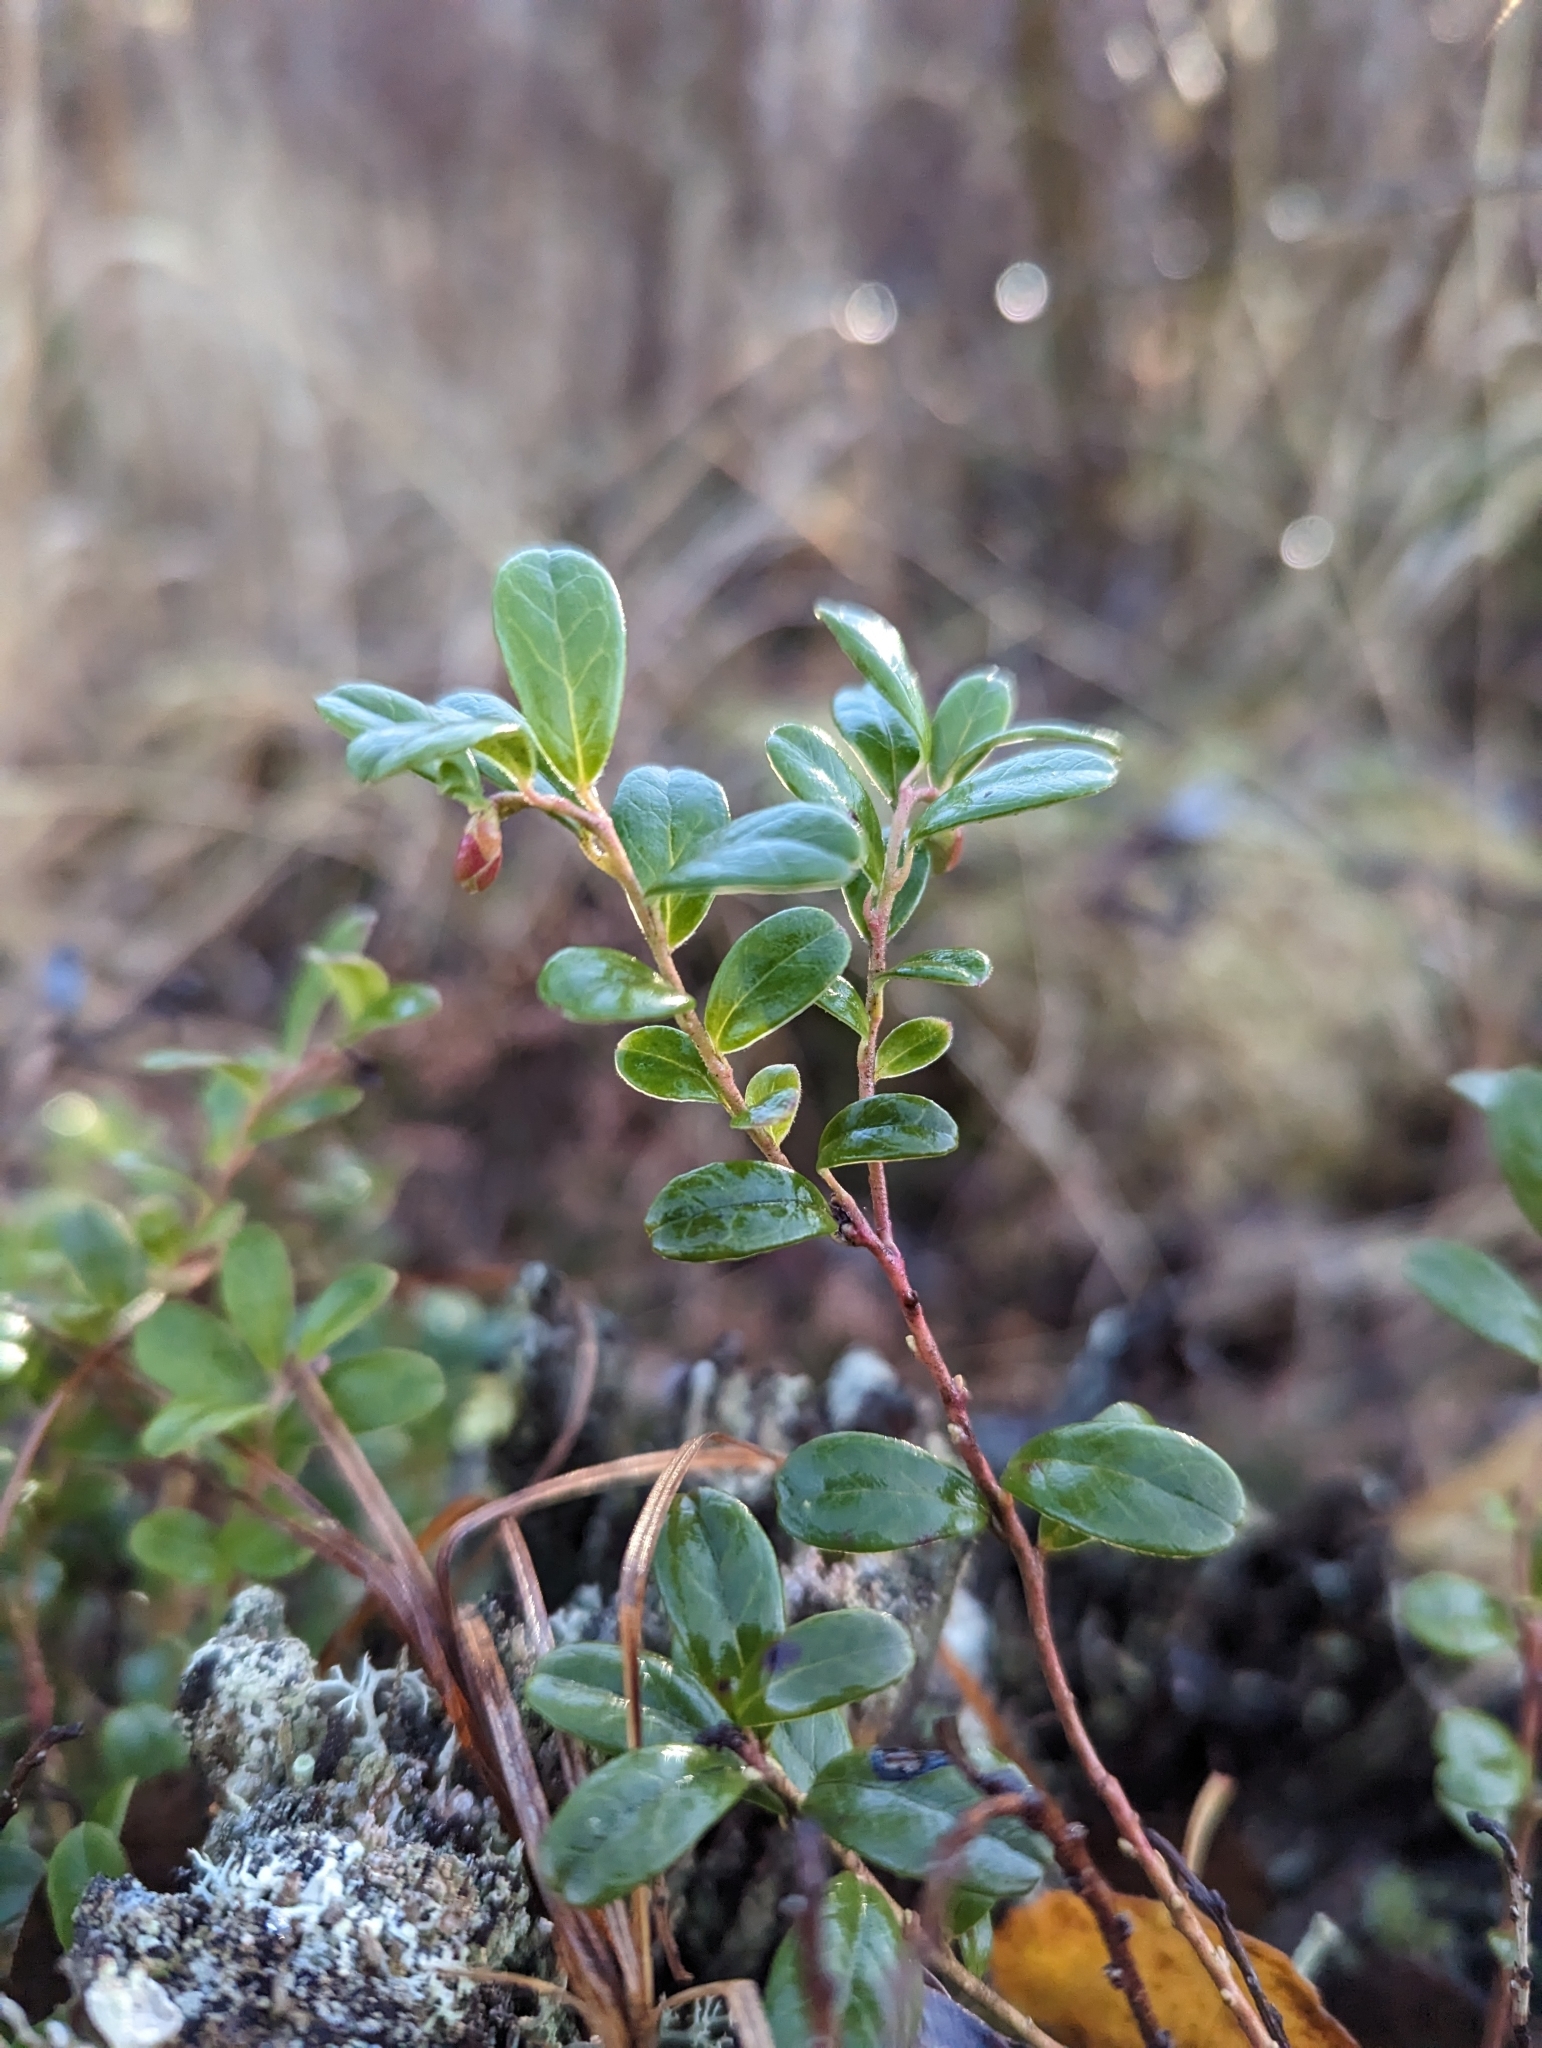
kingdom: Plantae
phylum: Tracheophyta
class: Magnoliopsida
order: Ericales
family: Ericaceae
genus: Vaccinium
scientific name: Vaccinium vitis-idaea
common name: Cowberry
